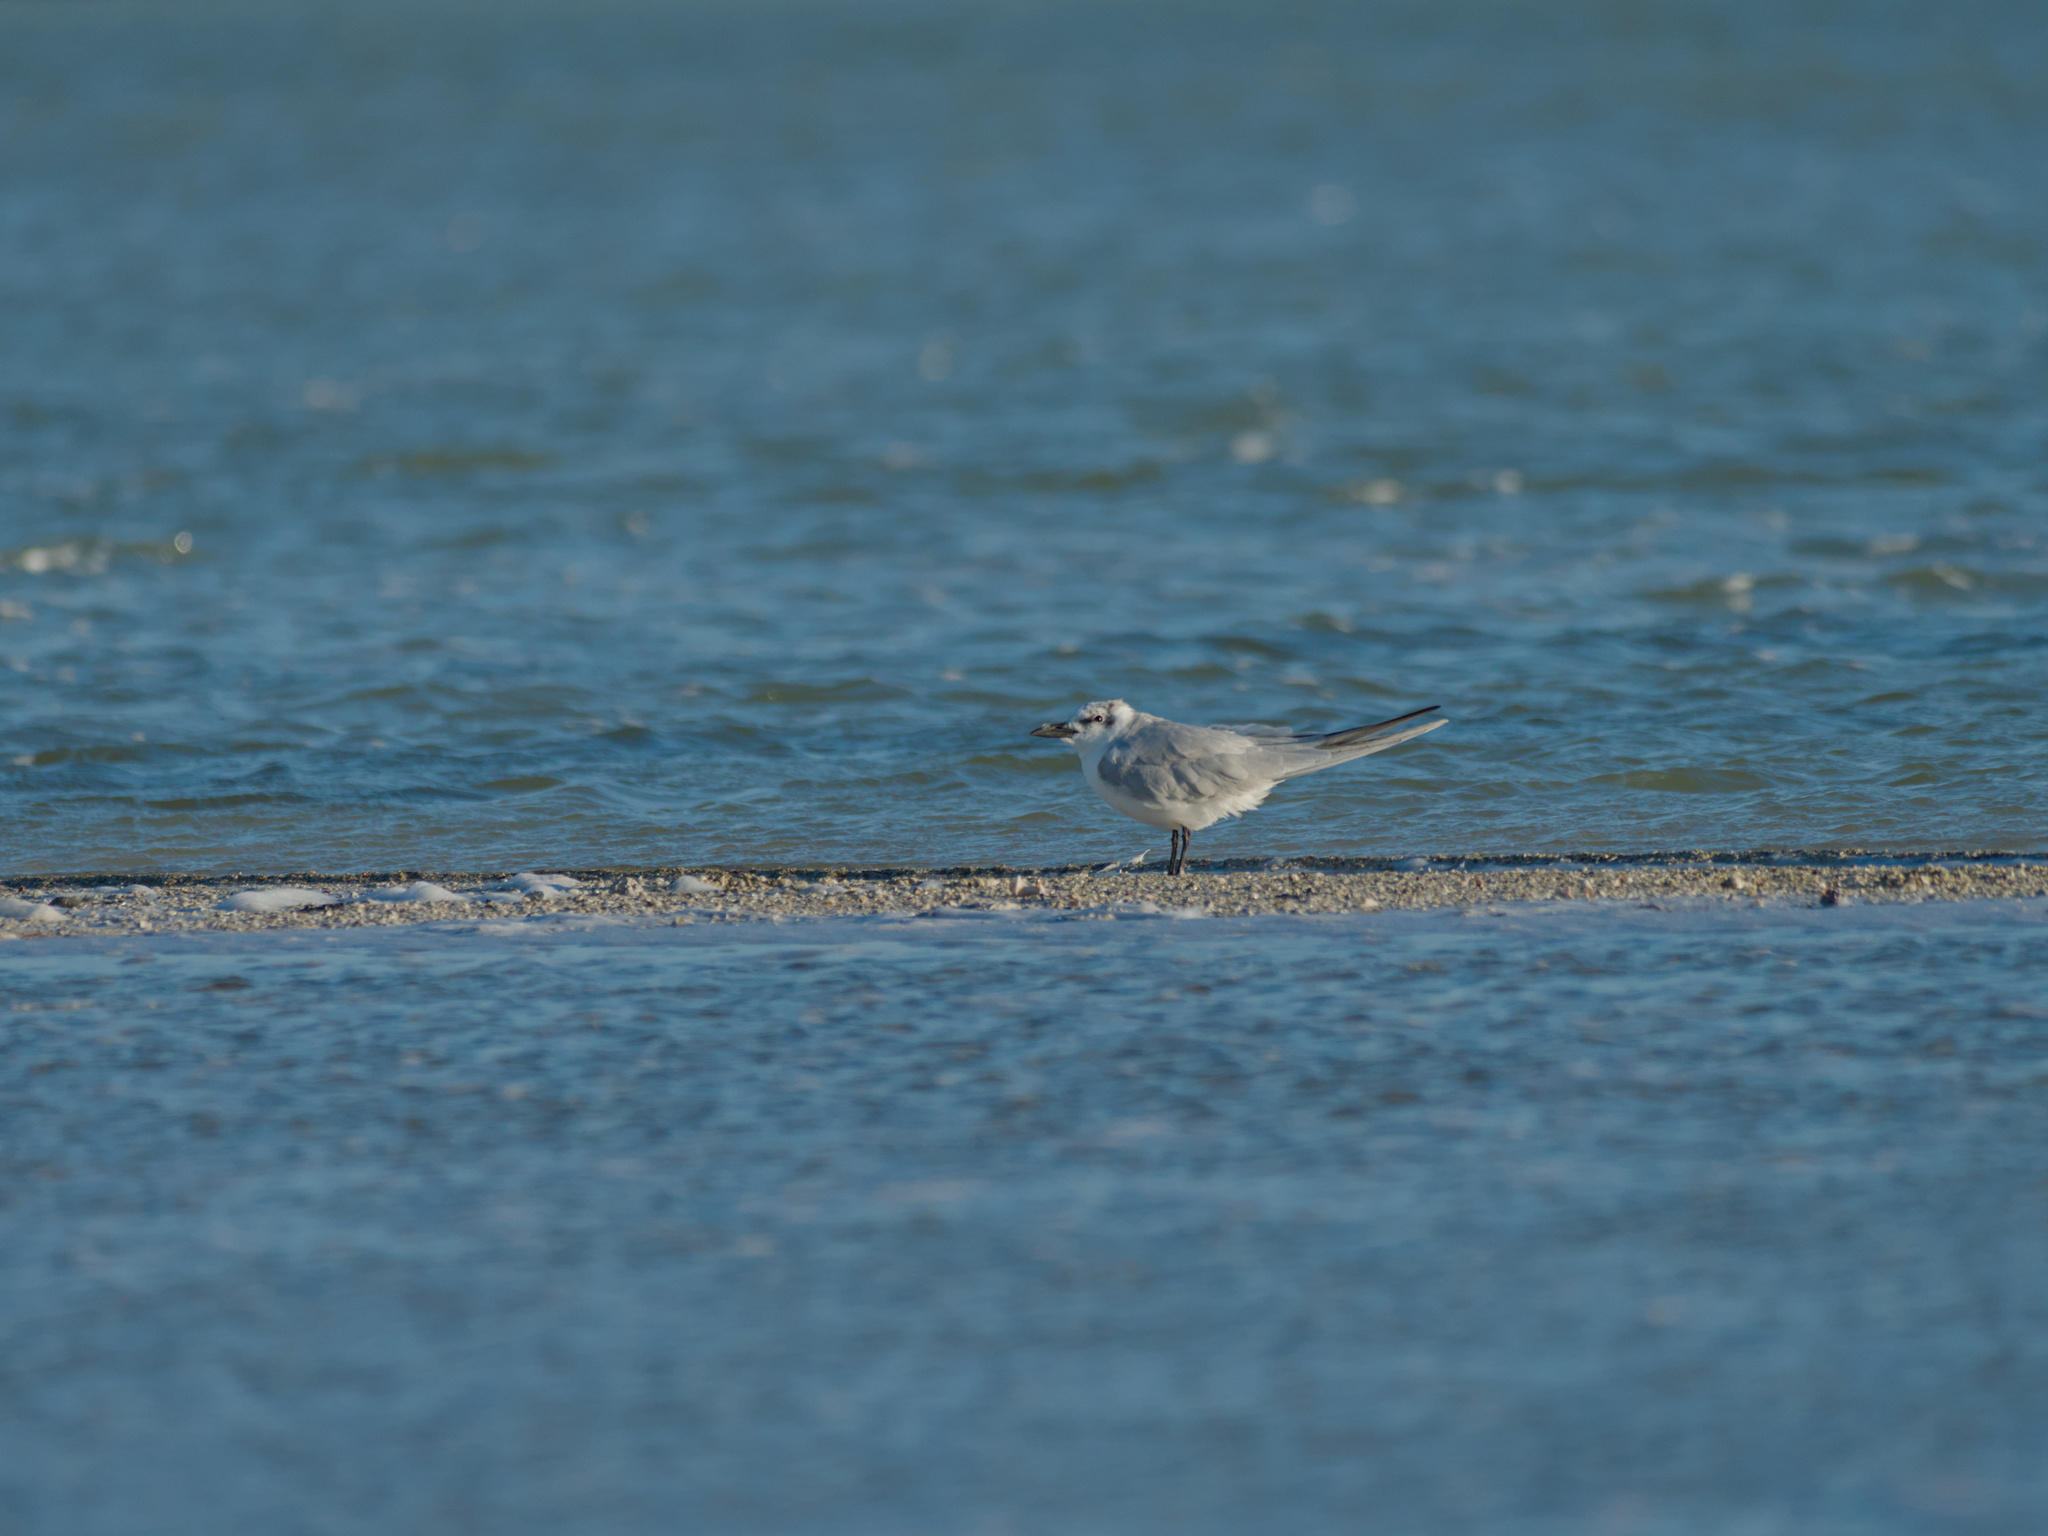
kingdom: Animalia
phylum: Chordata
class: Aves
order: Charadriiformes
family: Laridae
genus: Gelochelidon
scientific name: Gelochelidon nilotica
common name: Gull-billed tern
